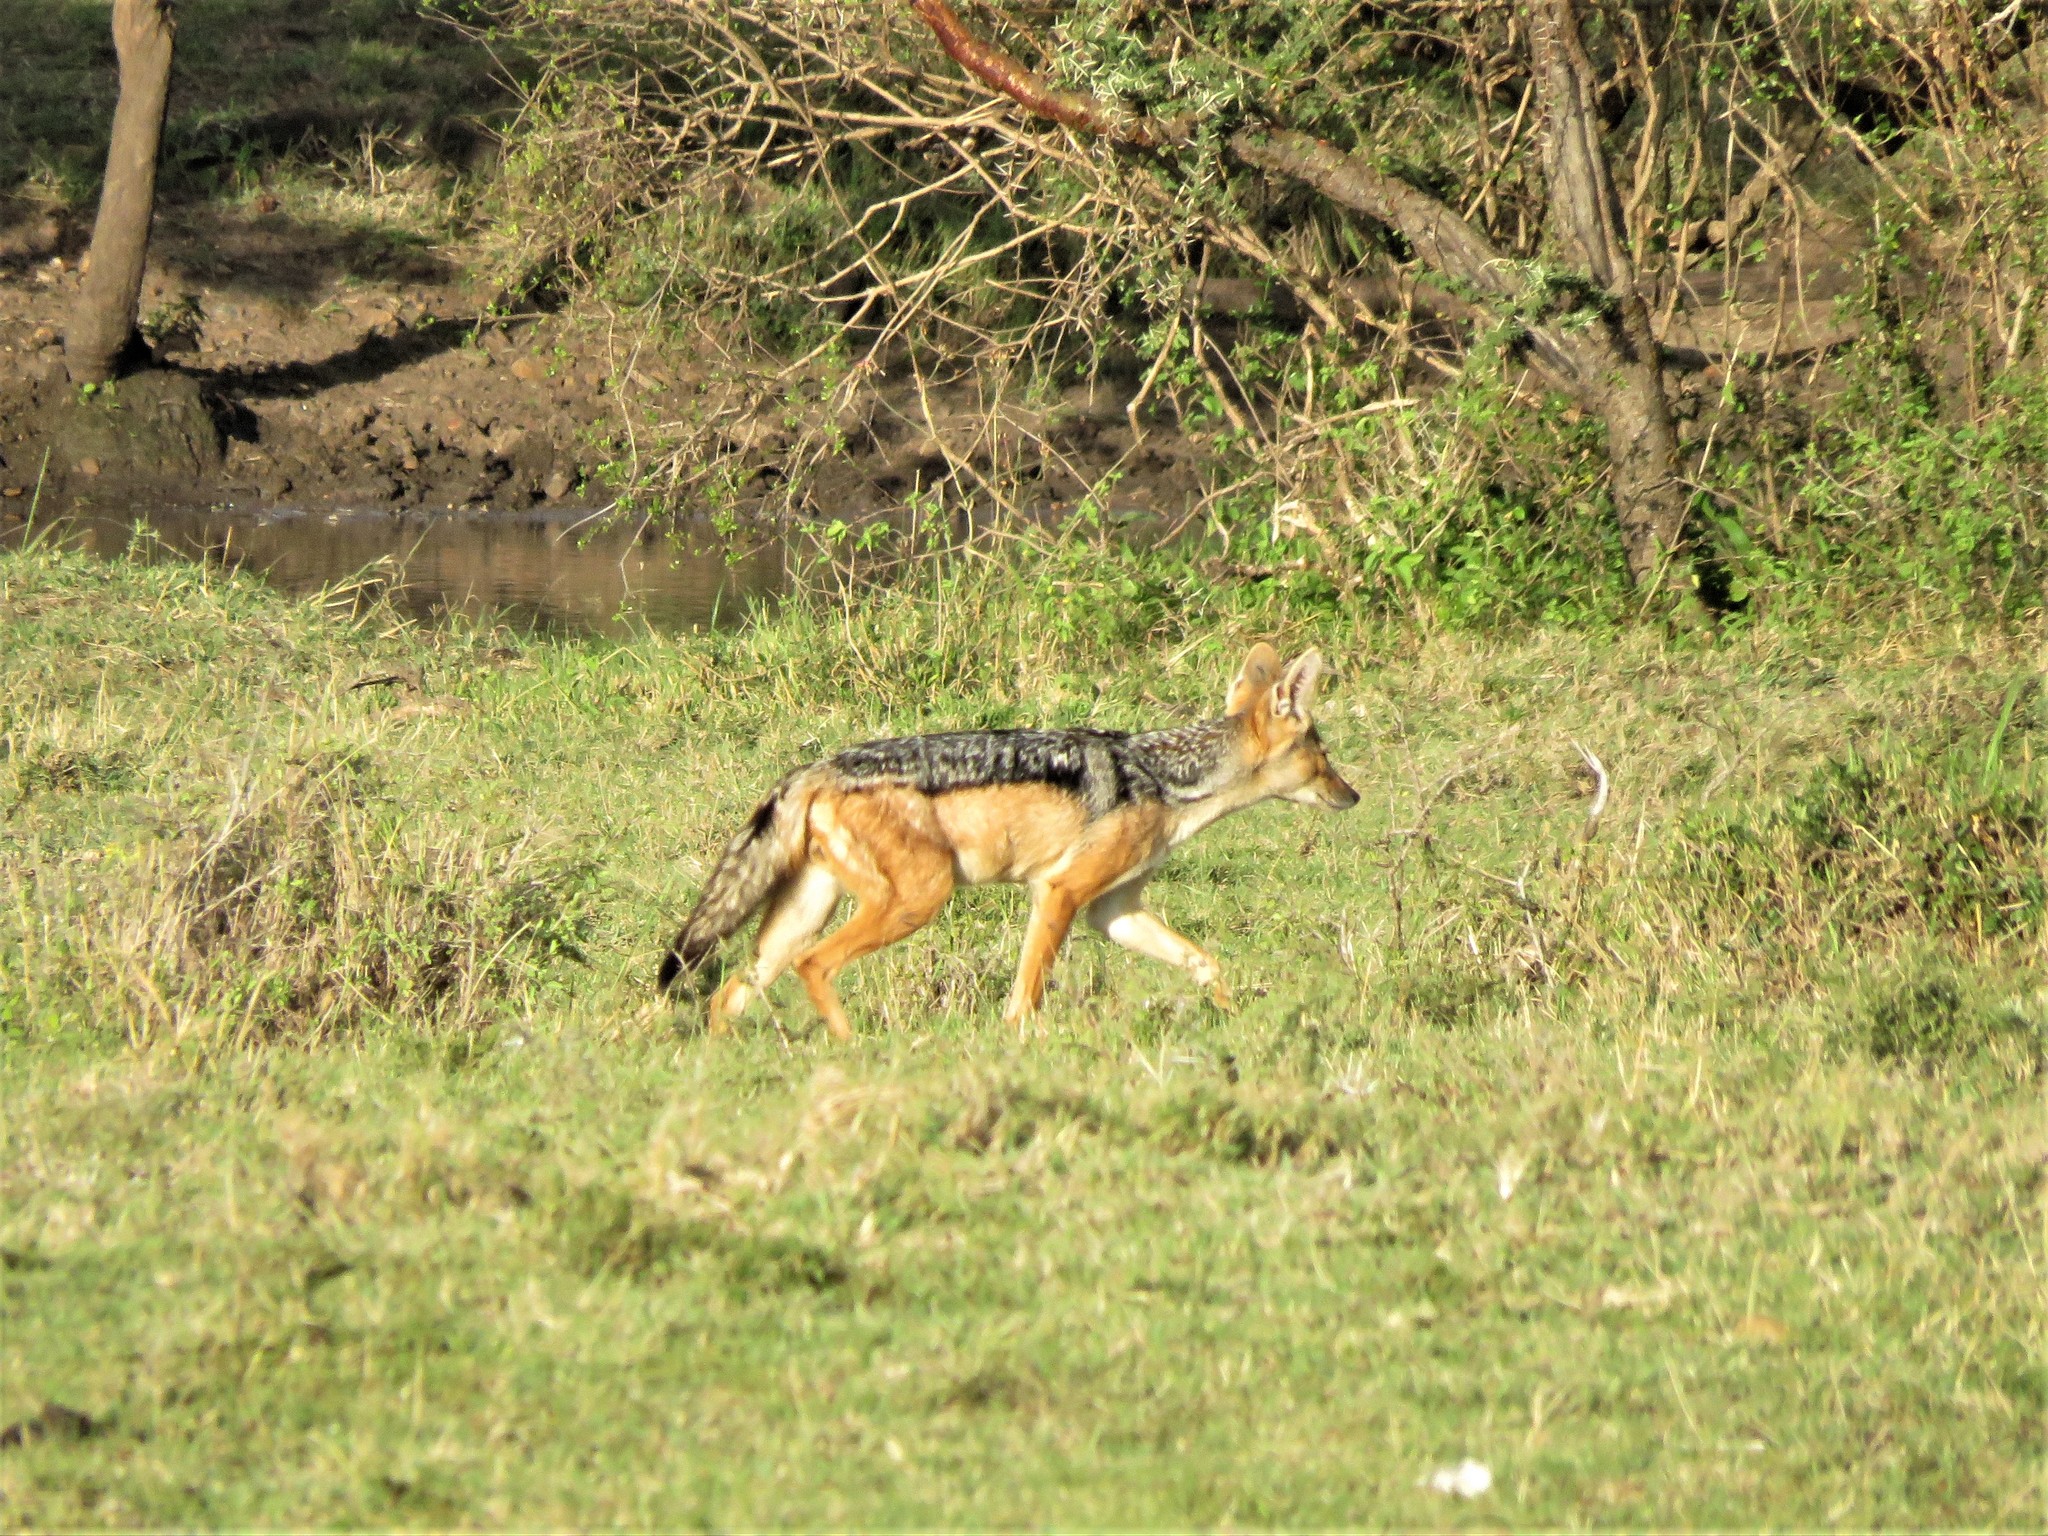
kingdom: Animalia
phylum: Chordata
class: Mammalia
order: Carnivora
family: Canidae
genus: Lupulella
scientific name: Lupulella
